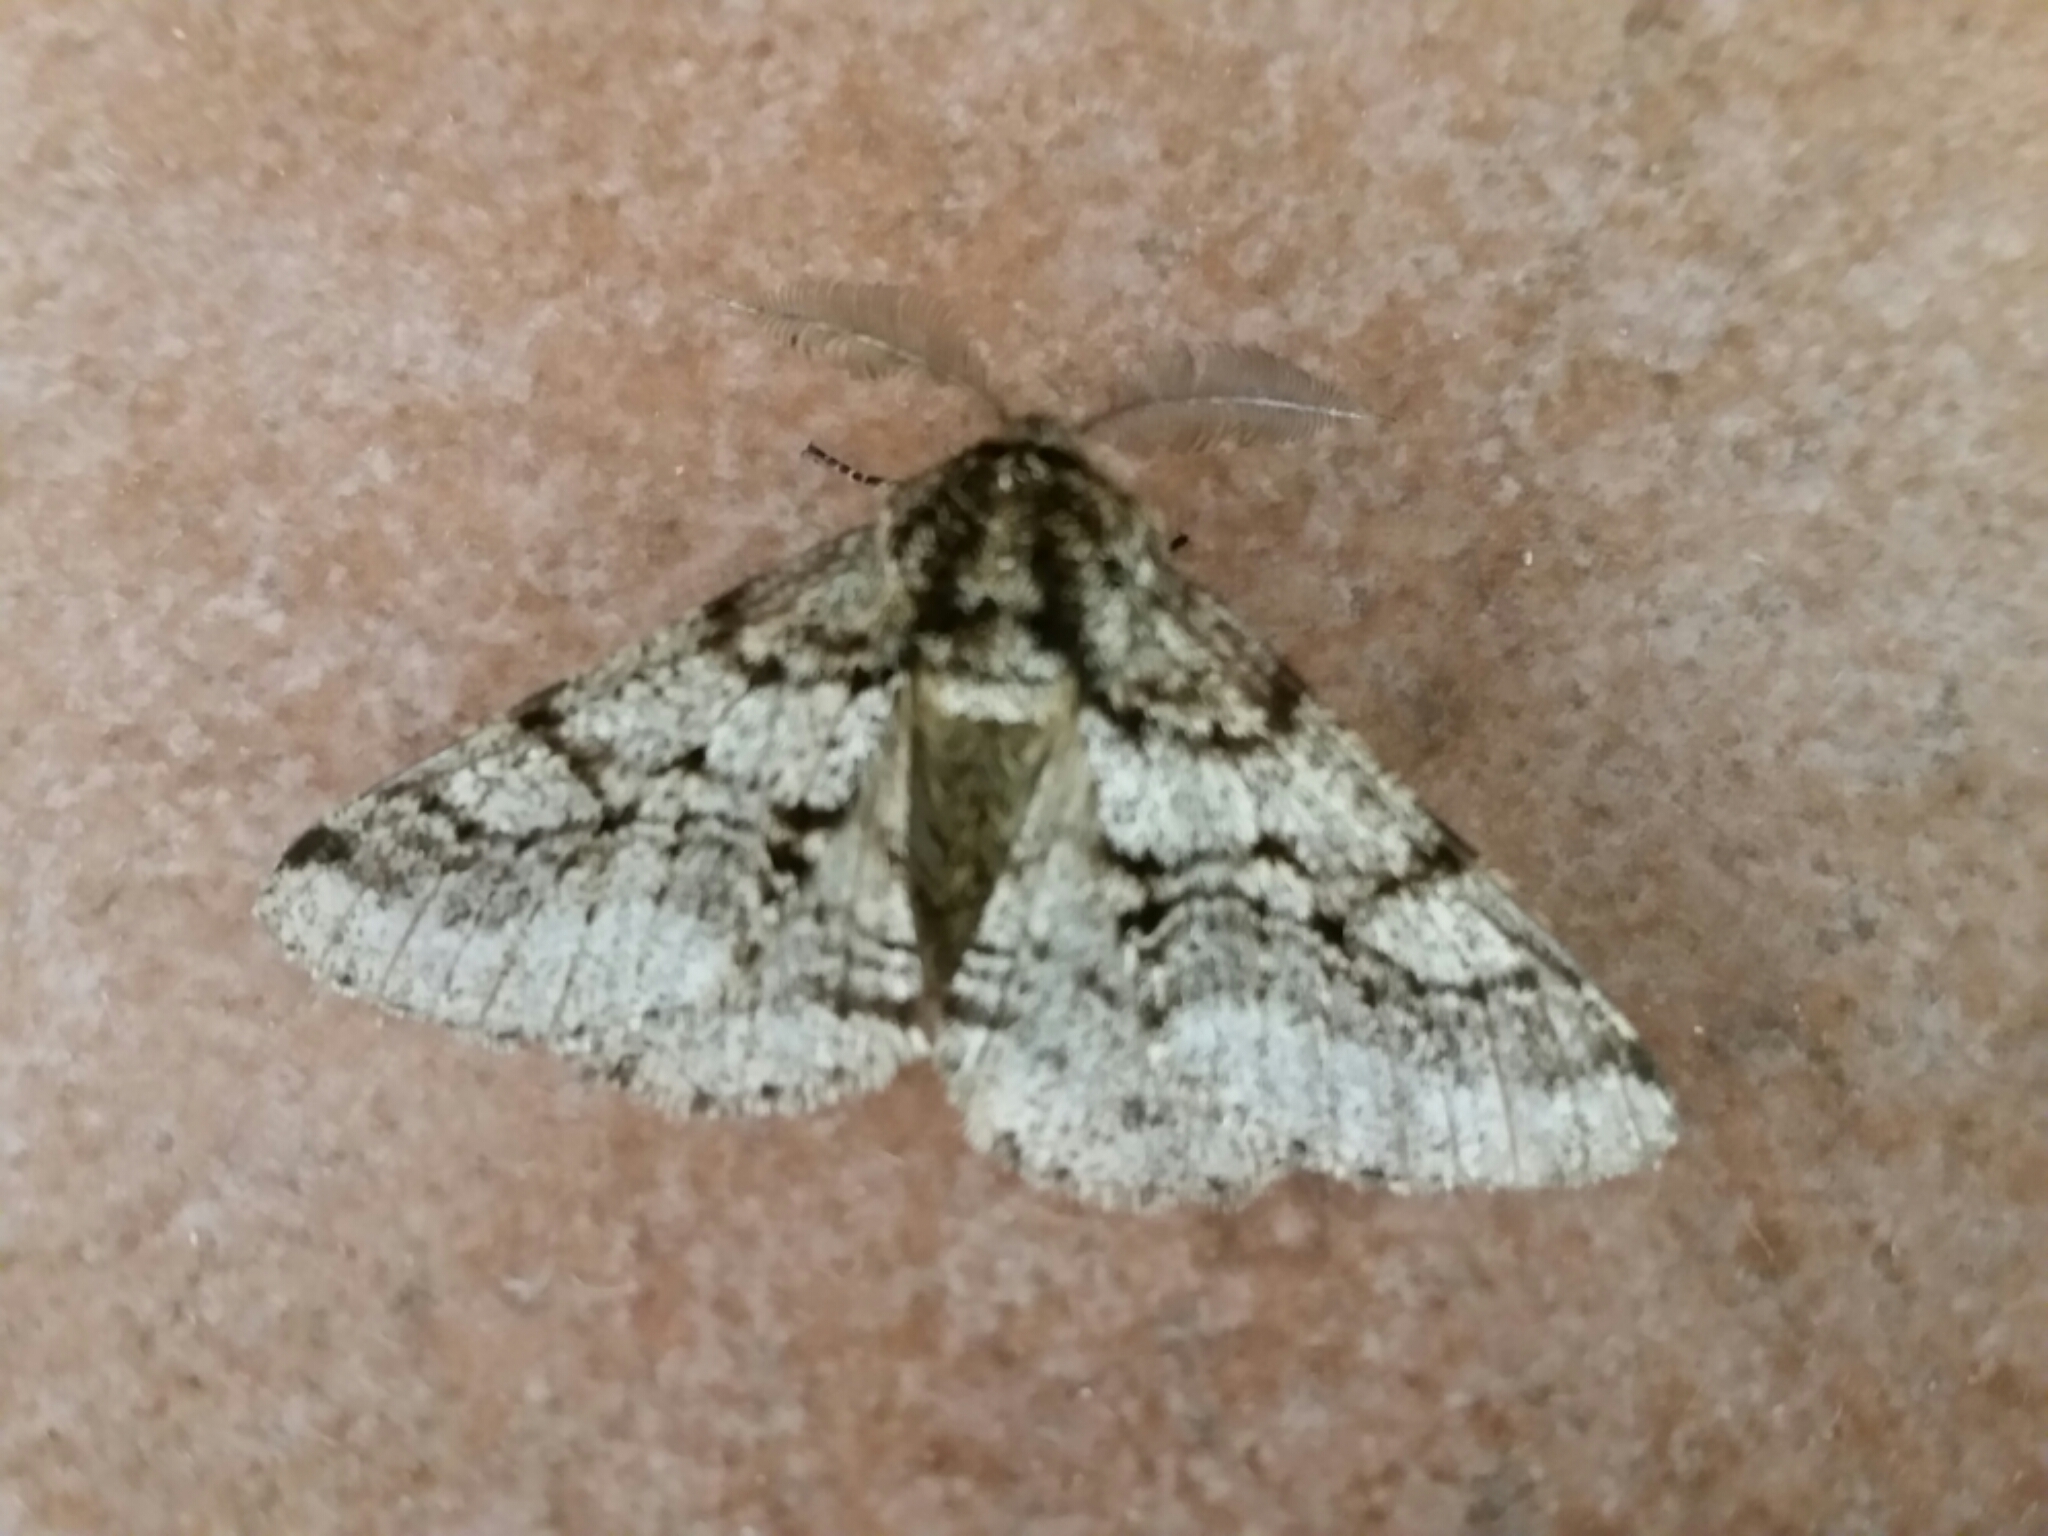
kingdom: Animalia
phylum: Arthropoda
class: Insecta
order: Lepidoptera
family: Geometridae
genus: Lycia
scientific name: Lycia hirtaria
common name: Brindled beauty
